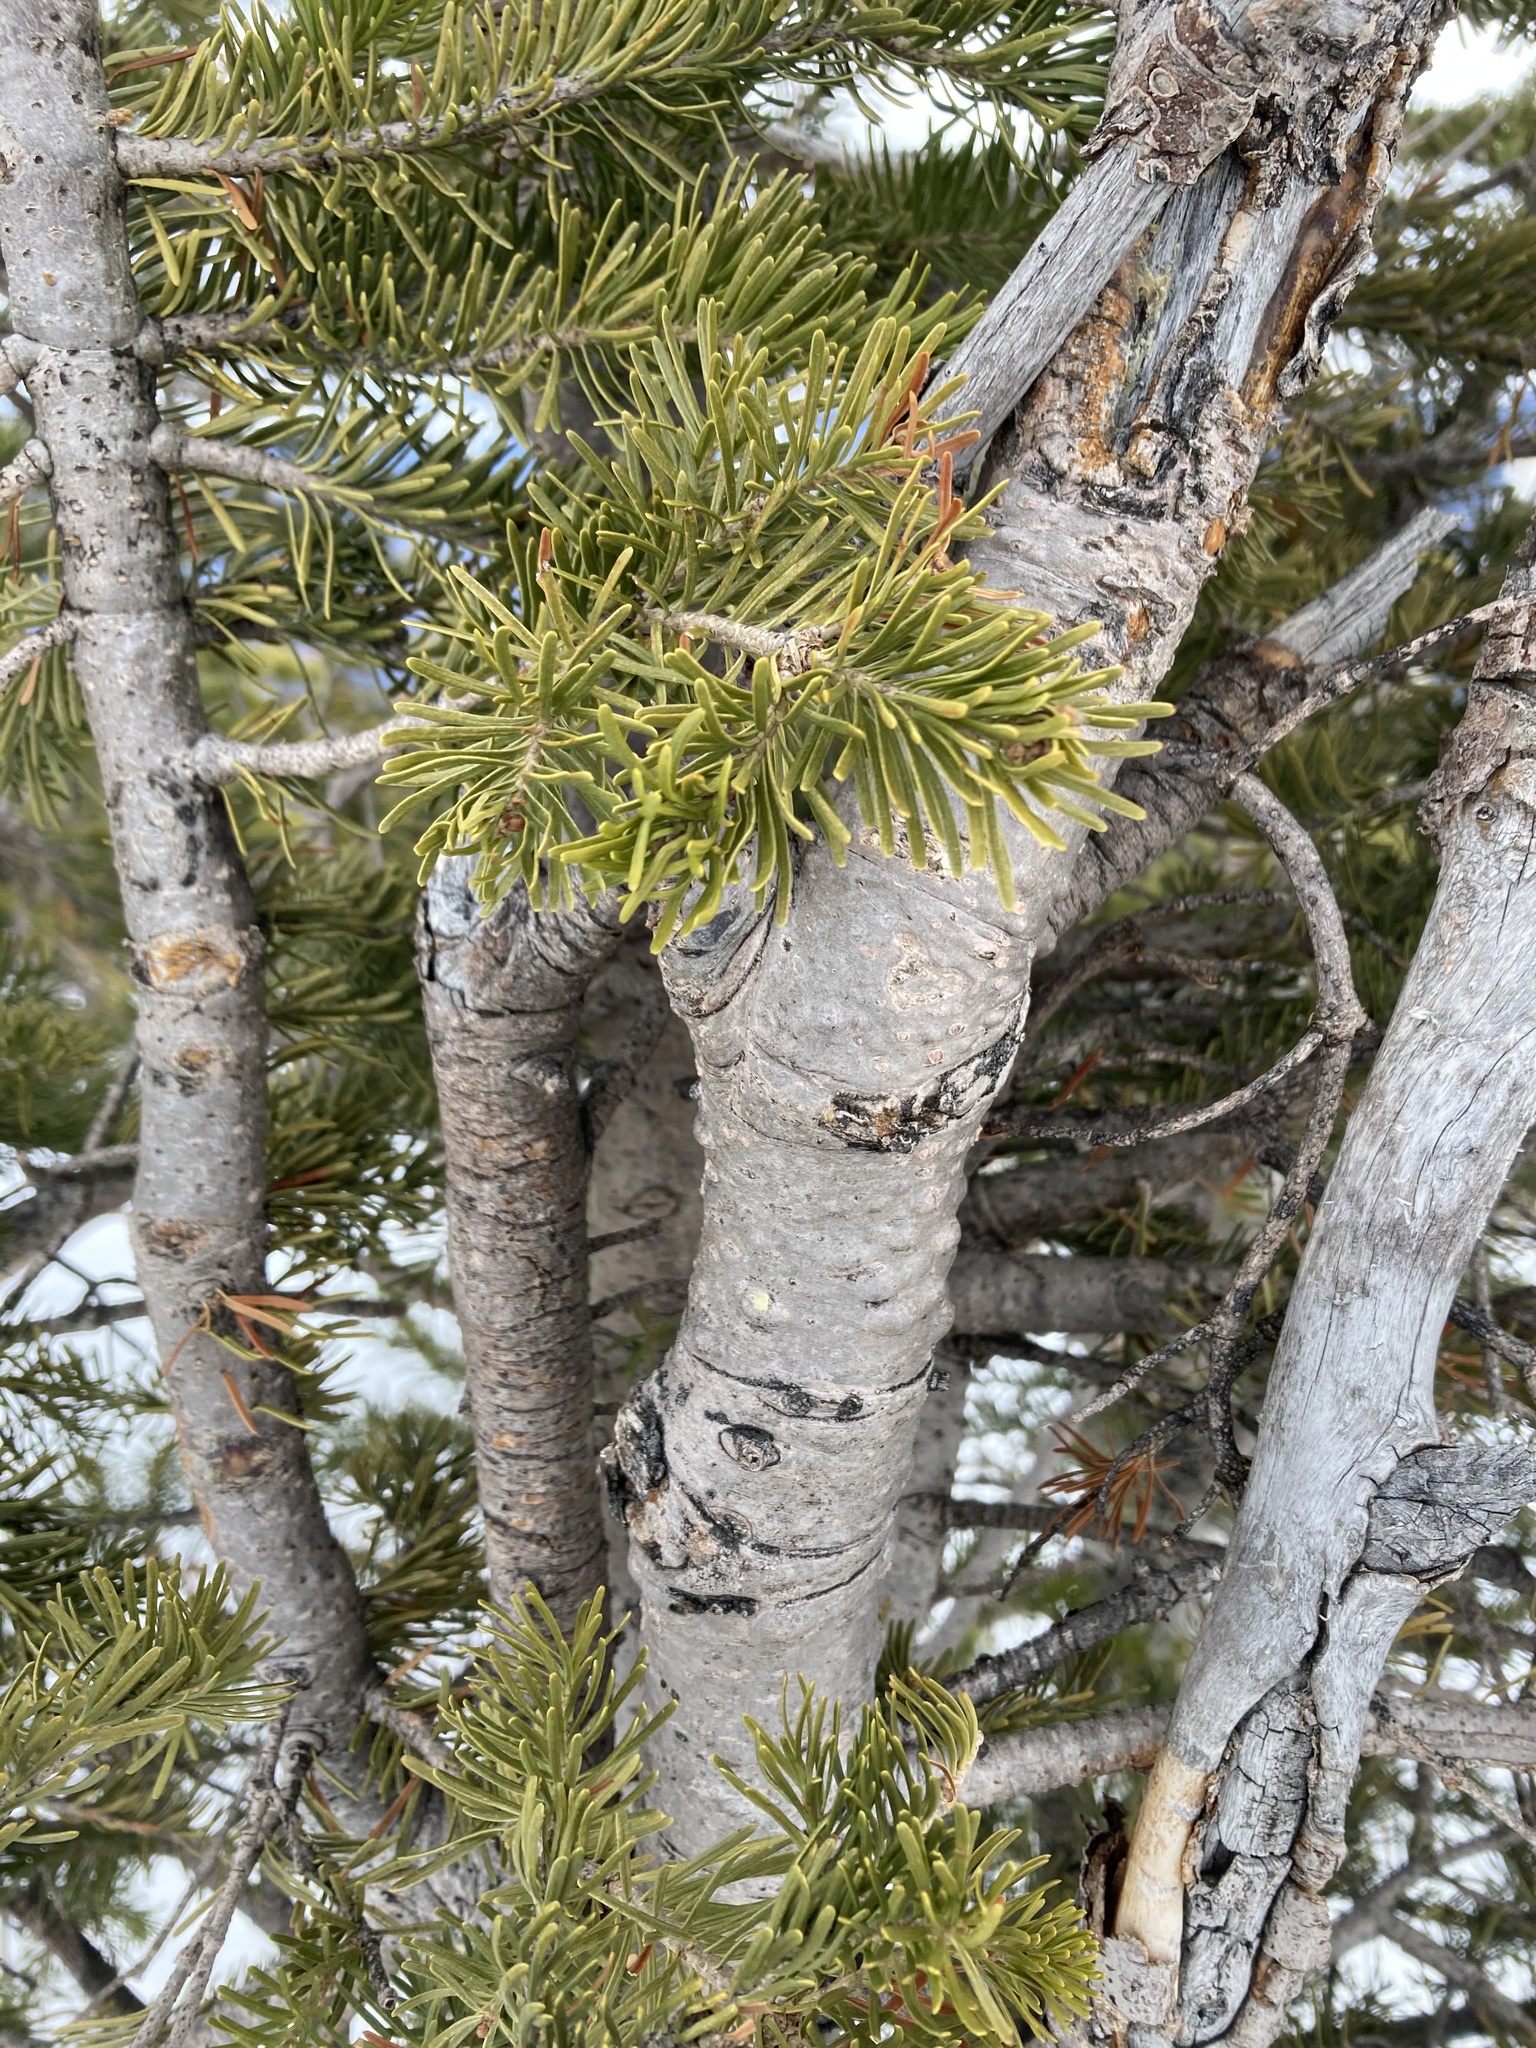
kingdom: Plantae
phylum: Tracheophyta
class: Pinopsida
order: Pinales
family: Pinaceae
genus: Abies
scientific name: Abies lasiocarpa
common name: Subalpine fir
